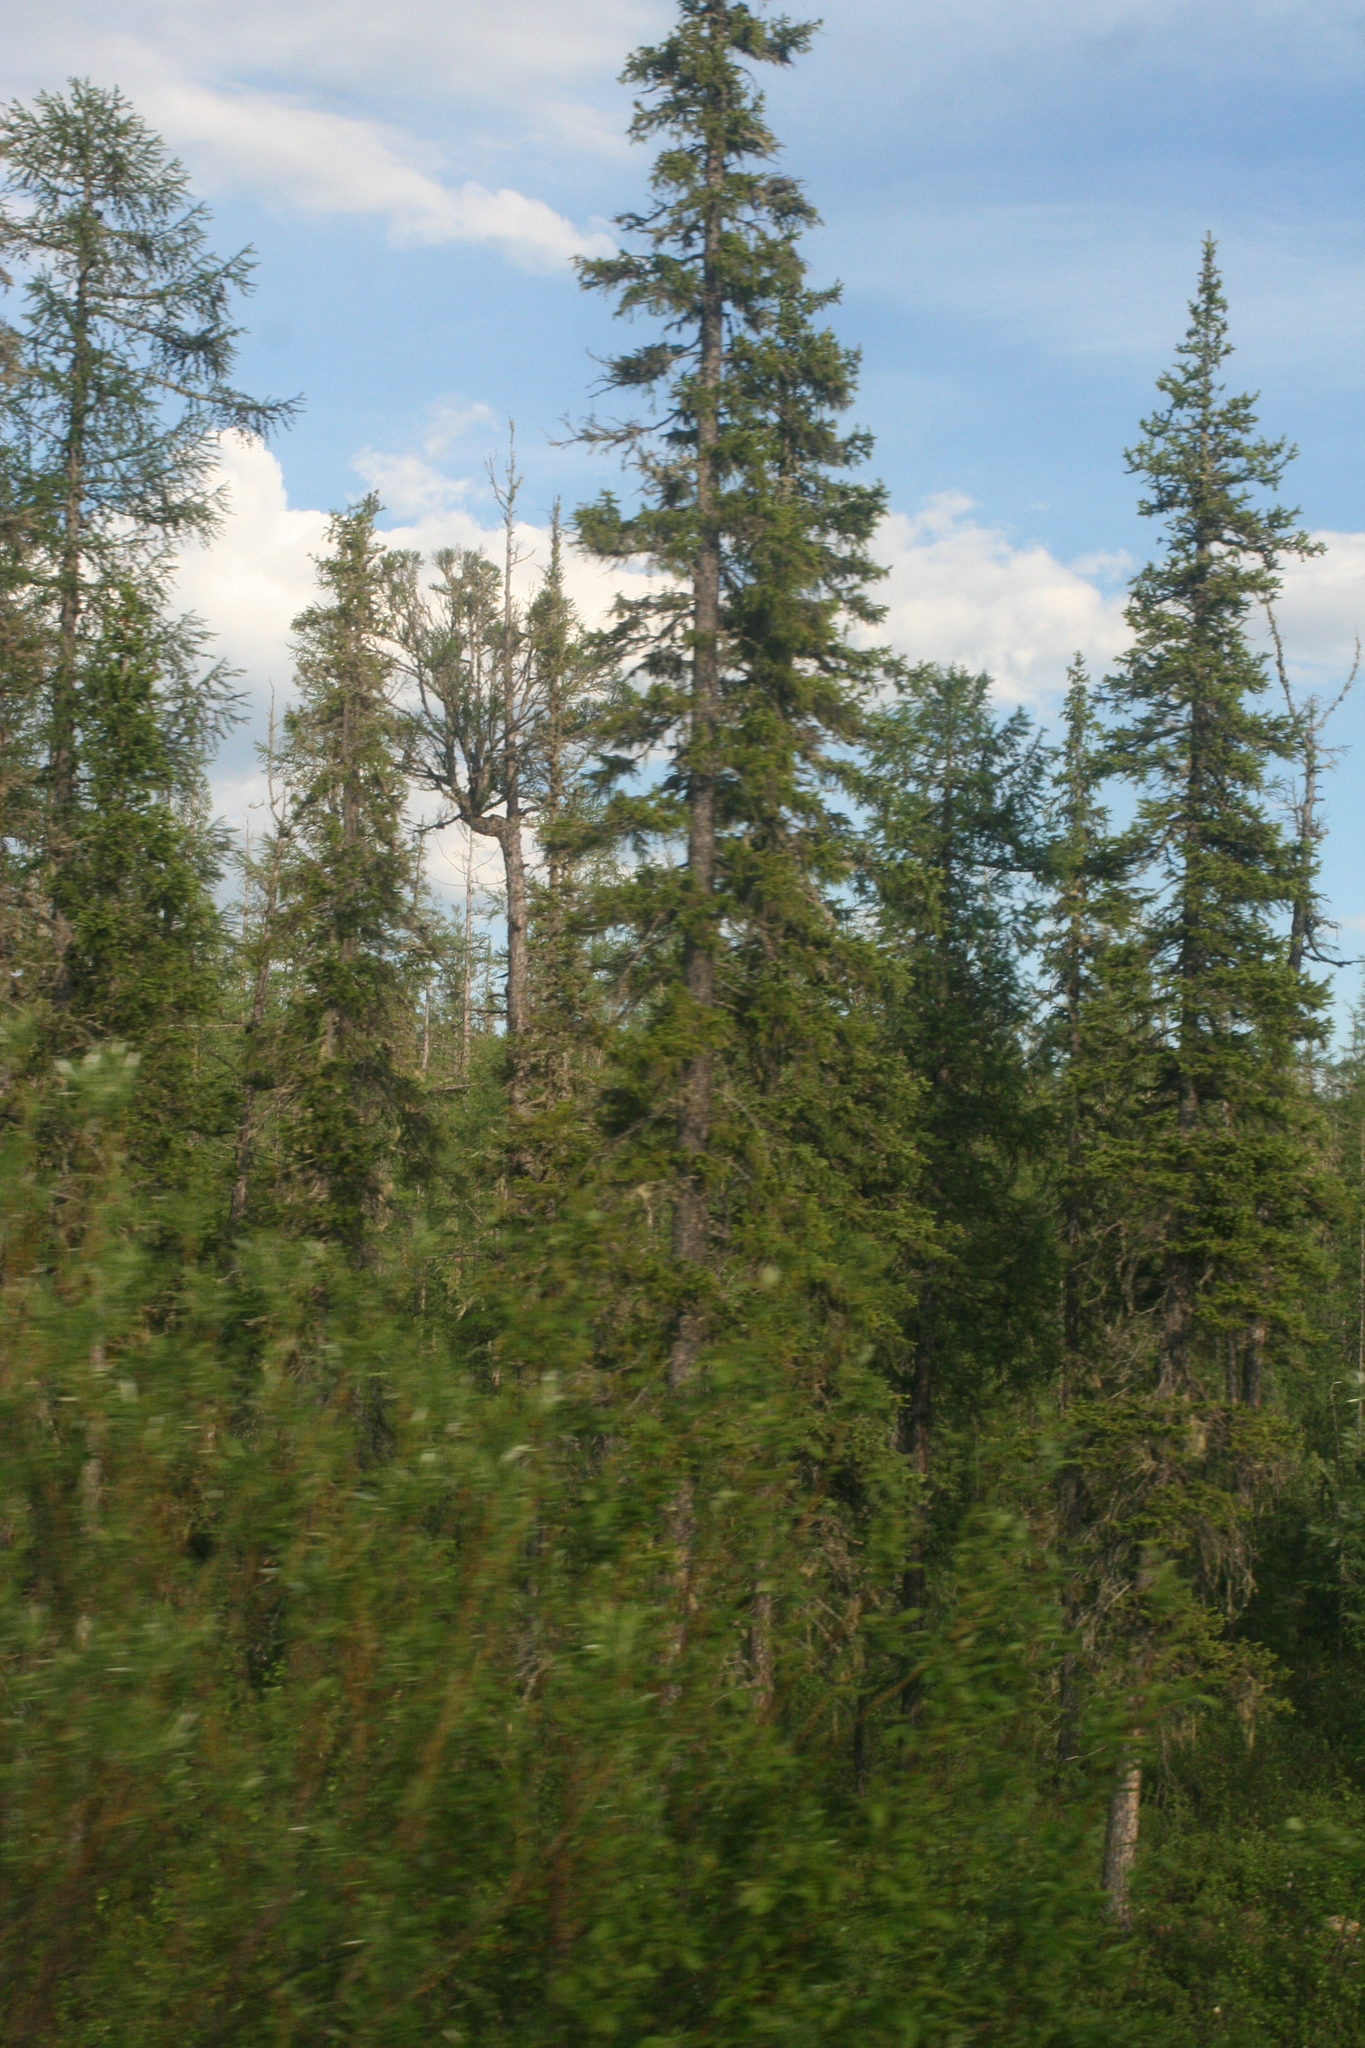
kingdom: Plantae
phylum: Tracheophyta
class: Pinopsida
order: Pinales
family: Pinaceae
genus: Picea
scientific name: Picea obovata
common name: Siberian spruce
